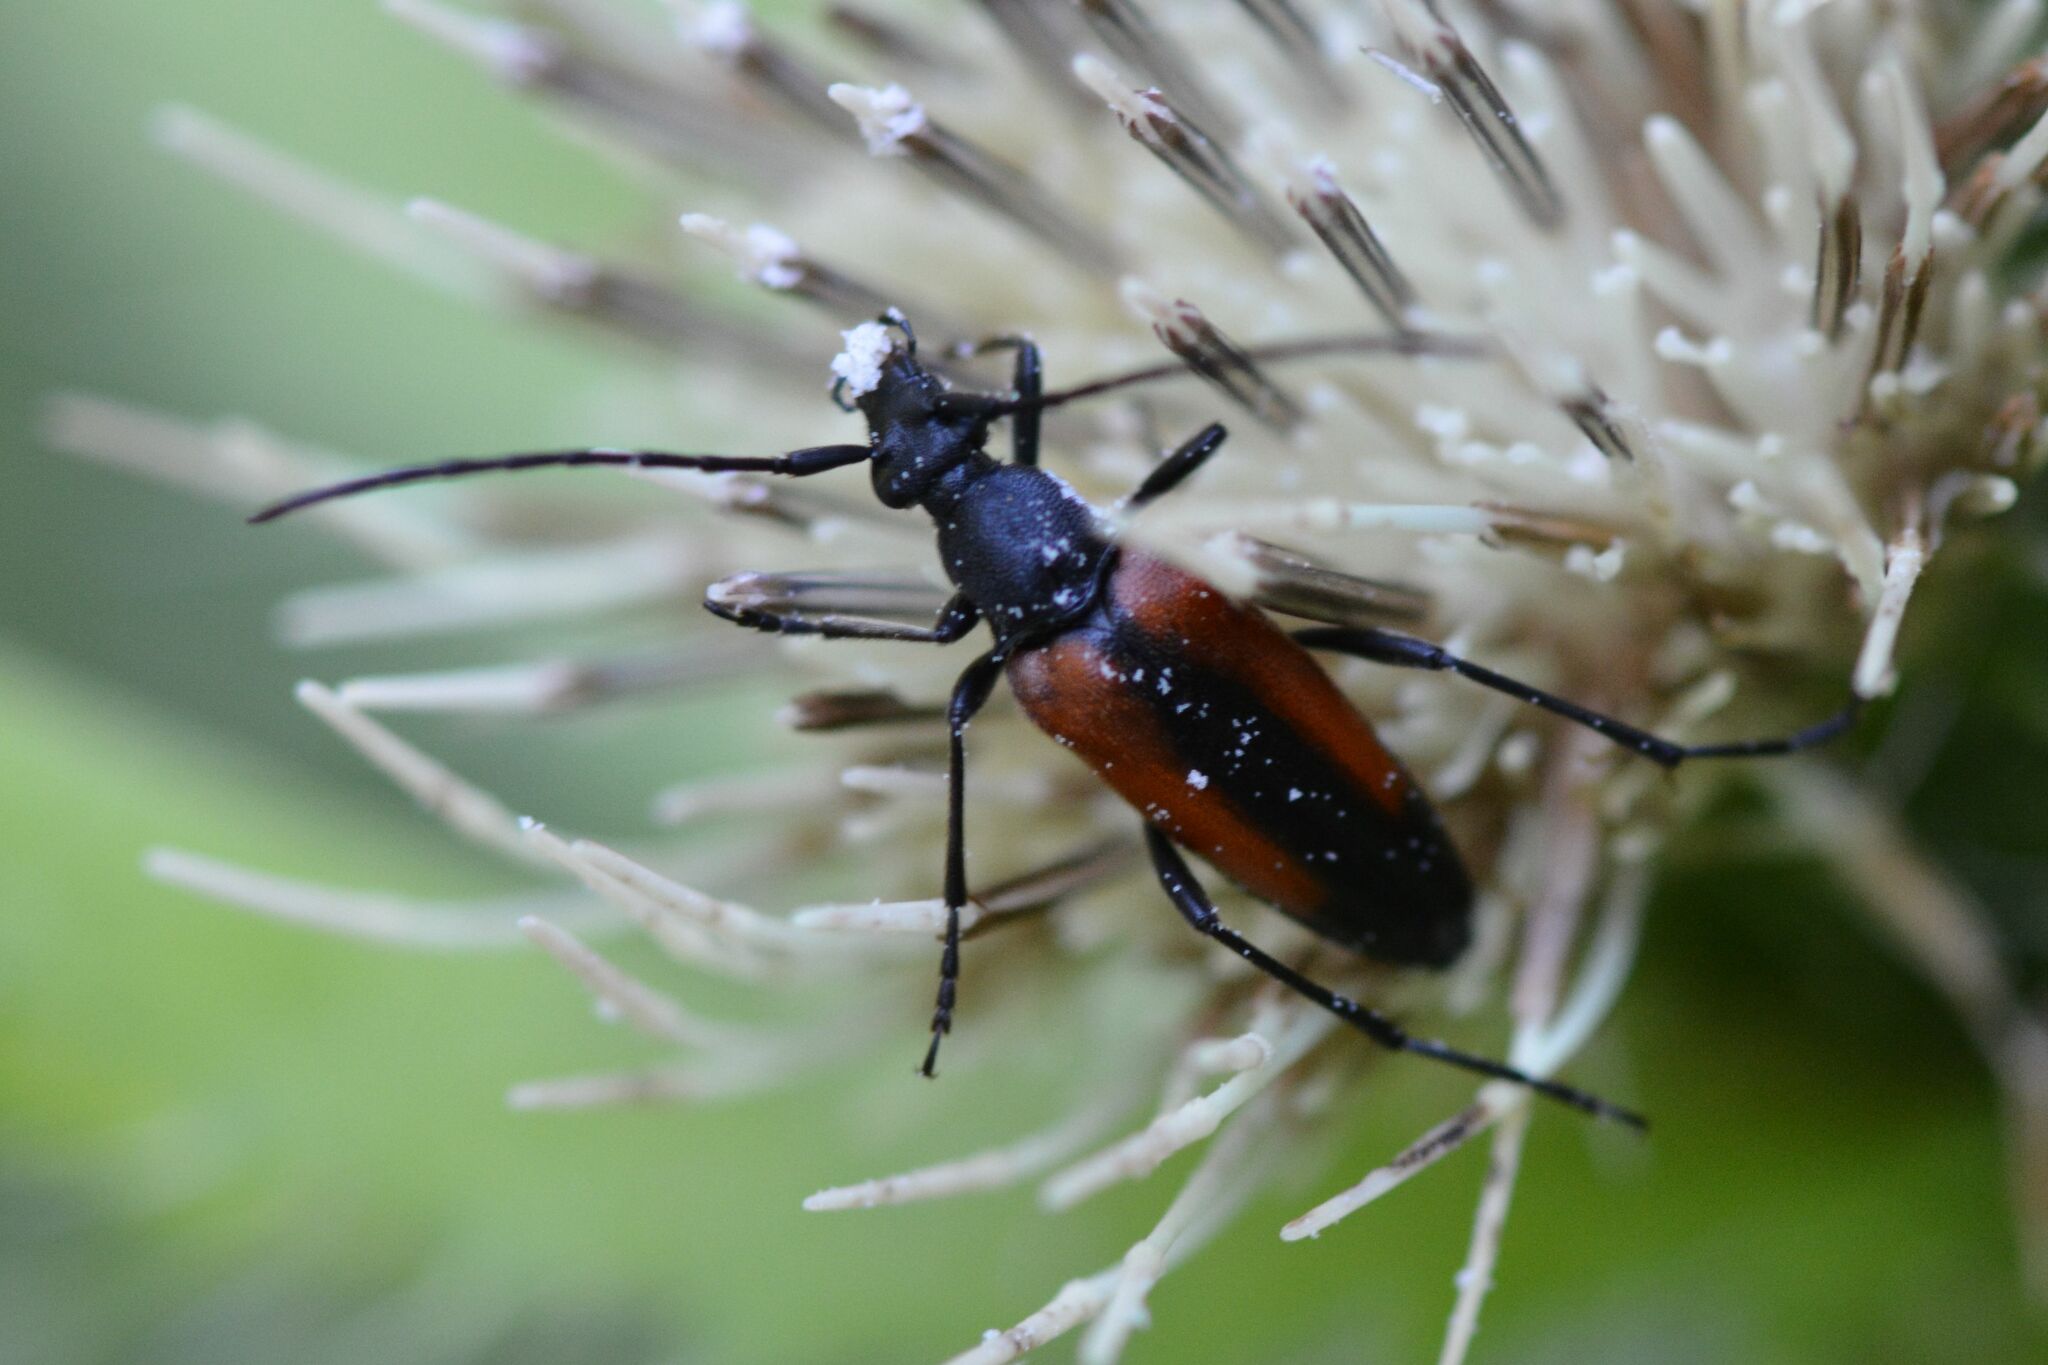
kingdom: Animalia
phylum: Arthropoda
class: Insecta
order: Coleoptera
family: Cerambycidae
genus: Stenurella
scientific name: Stenurella melanura
